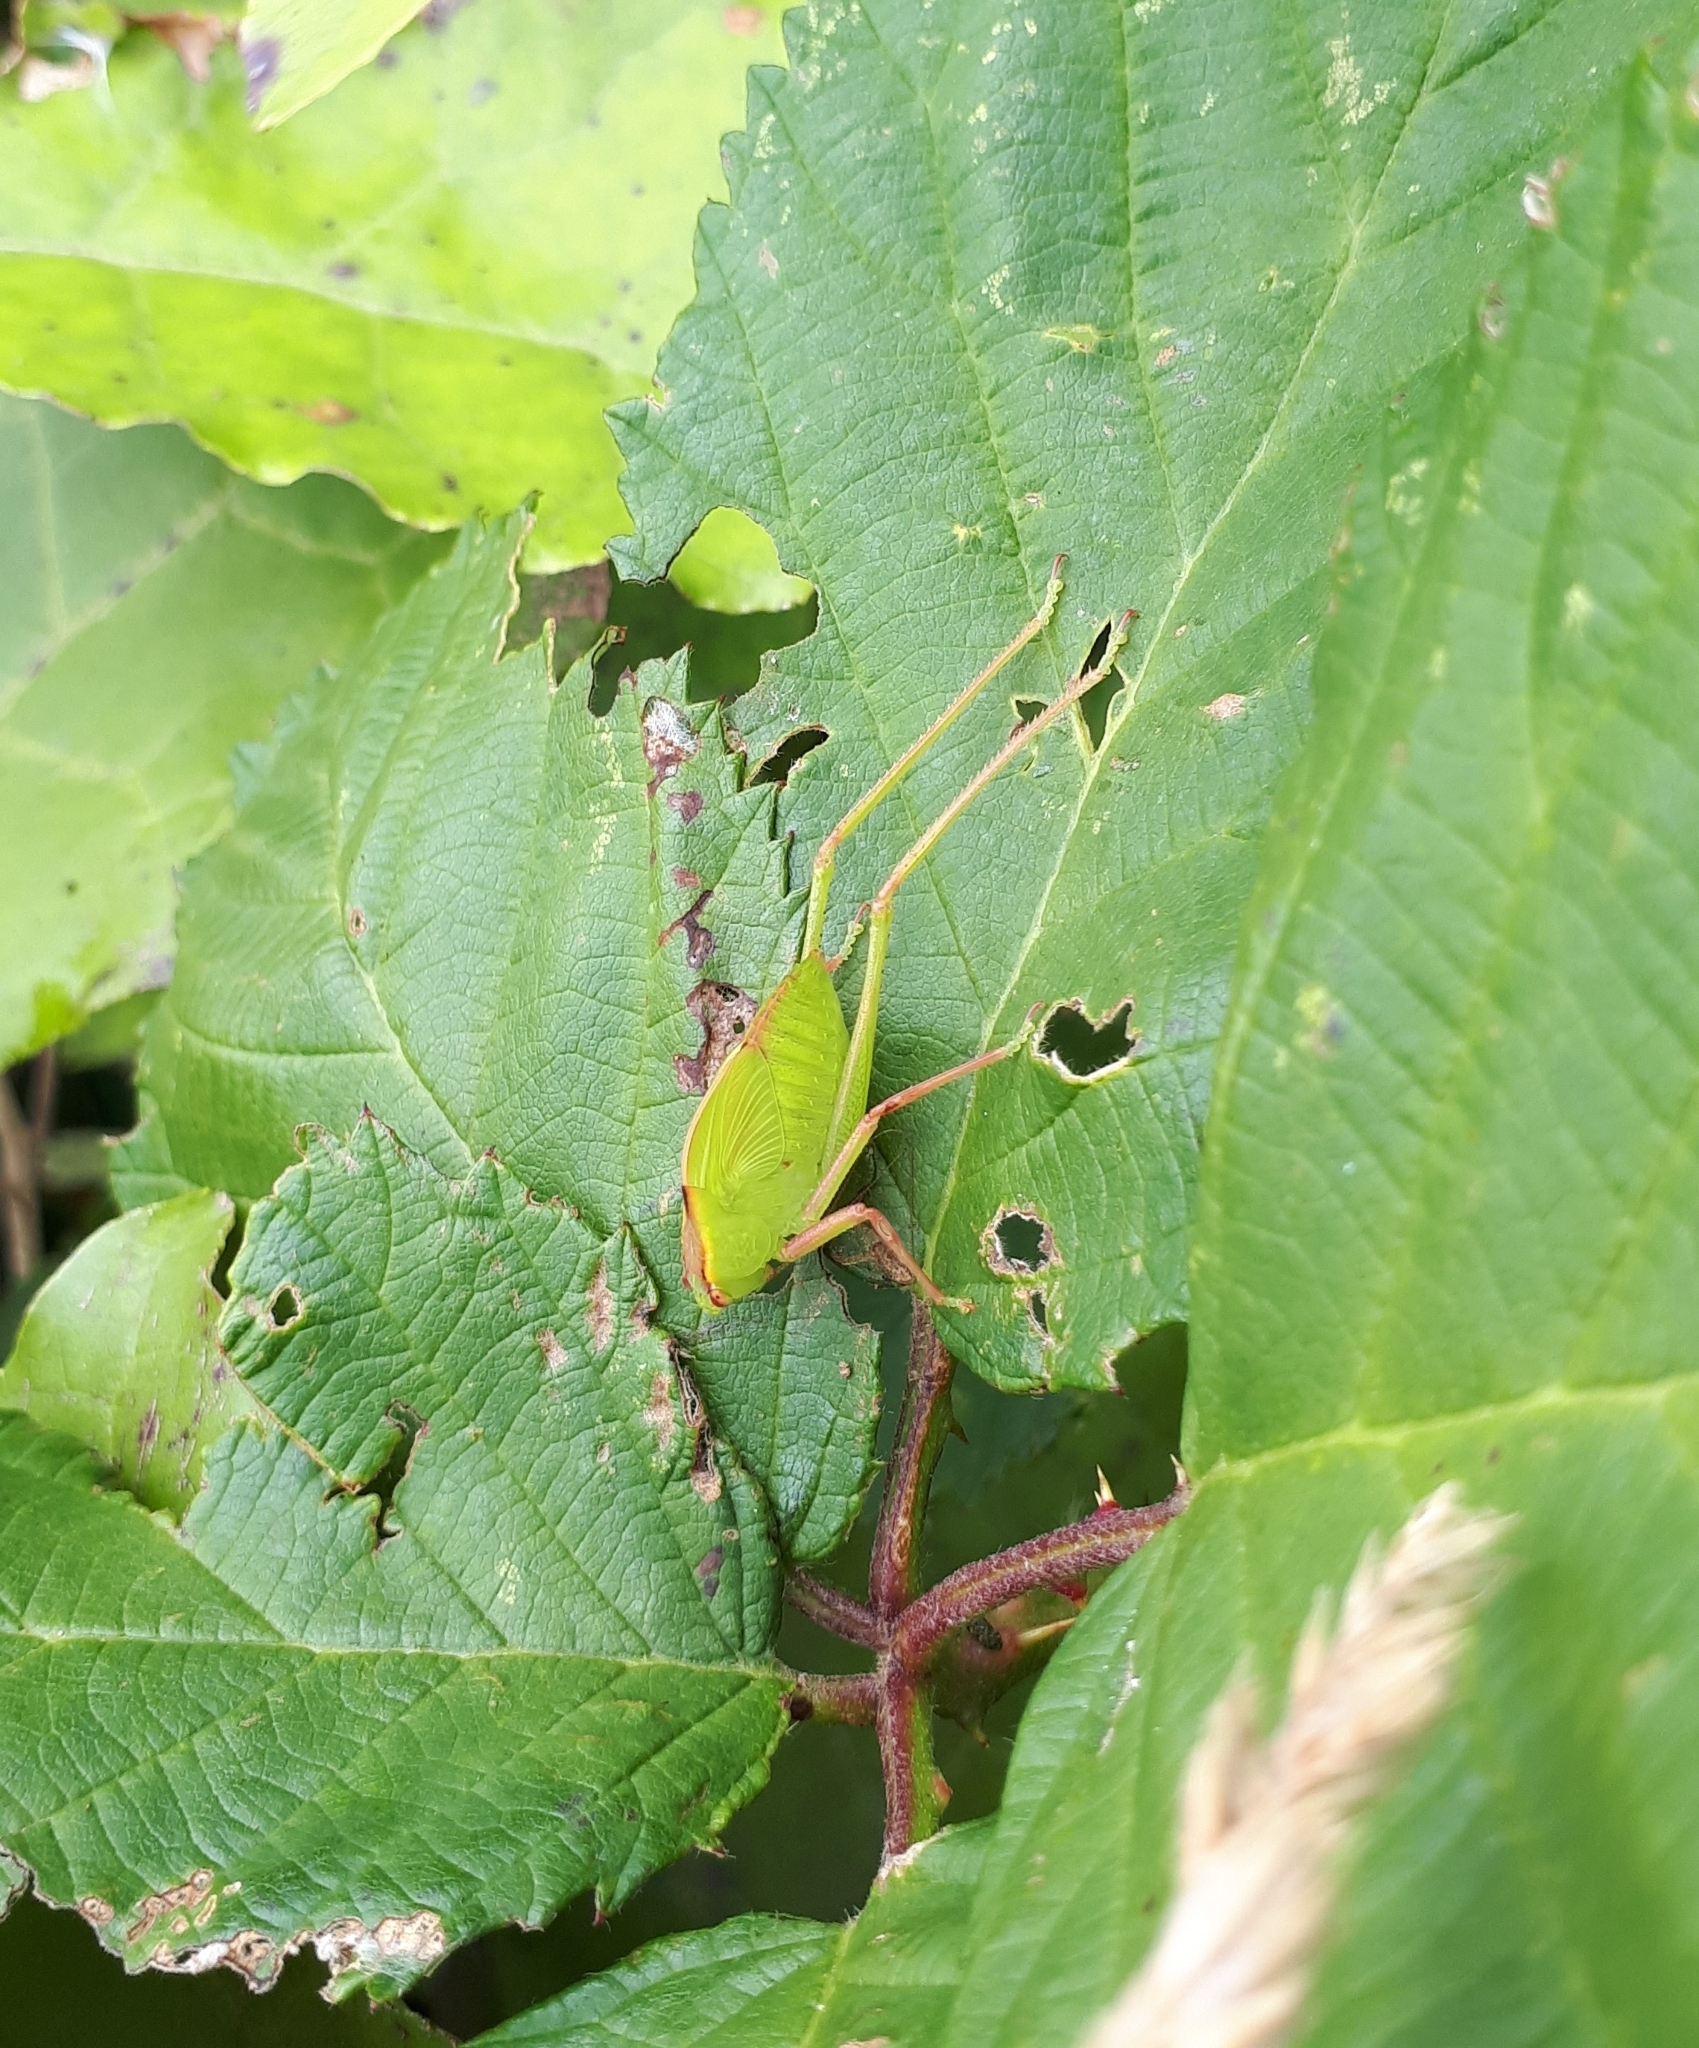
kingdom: Animalia
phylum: Arthropoda
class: Insecta
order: Orthoptera
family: Tettigoniidae
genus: Caedicia
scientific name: Caedicia simplex
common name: Common garden katydid
